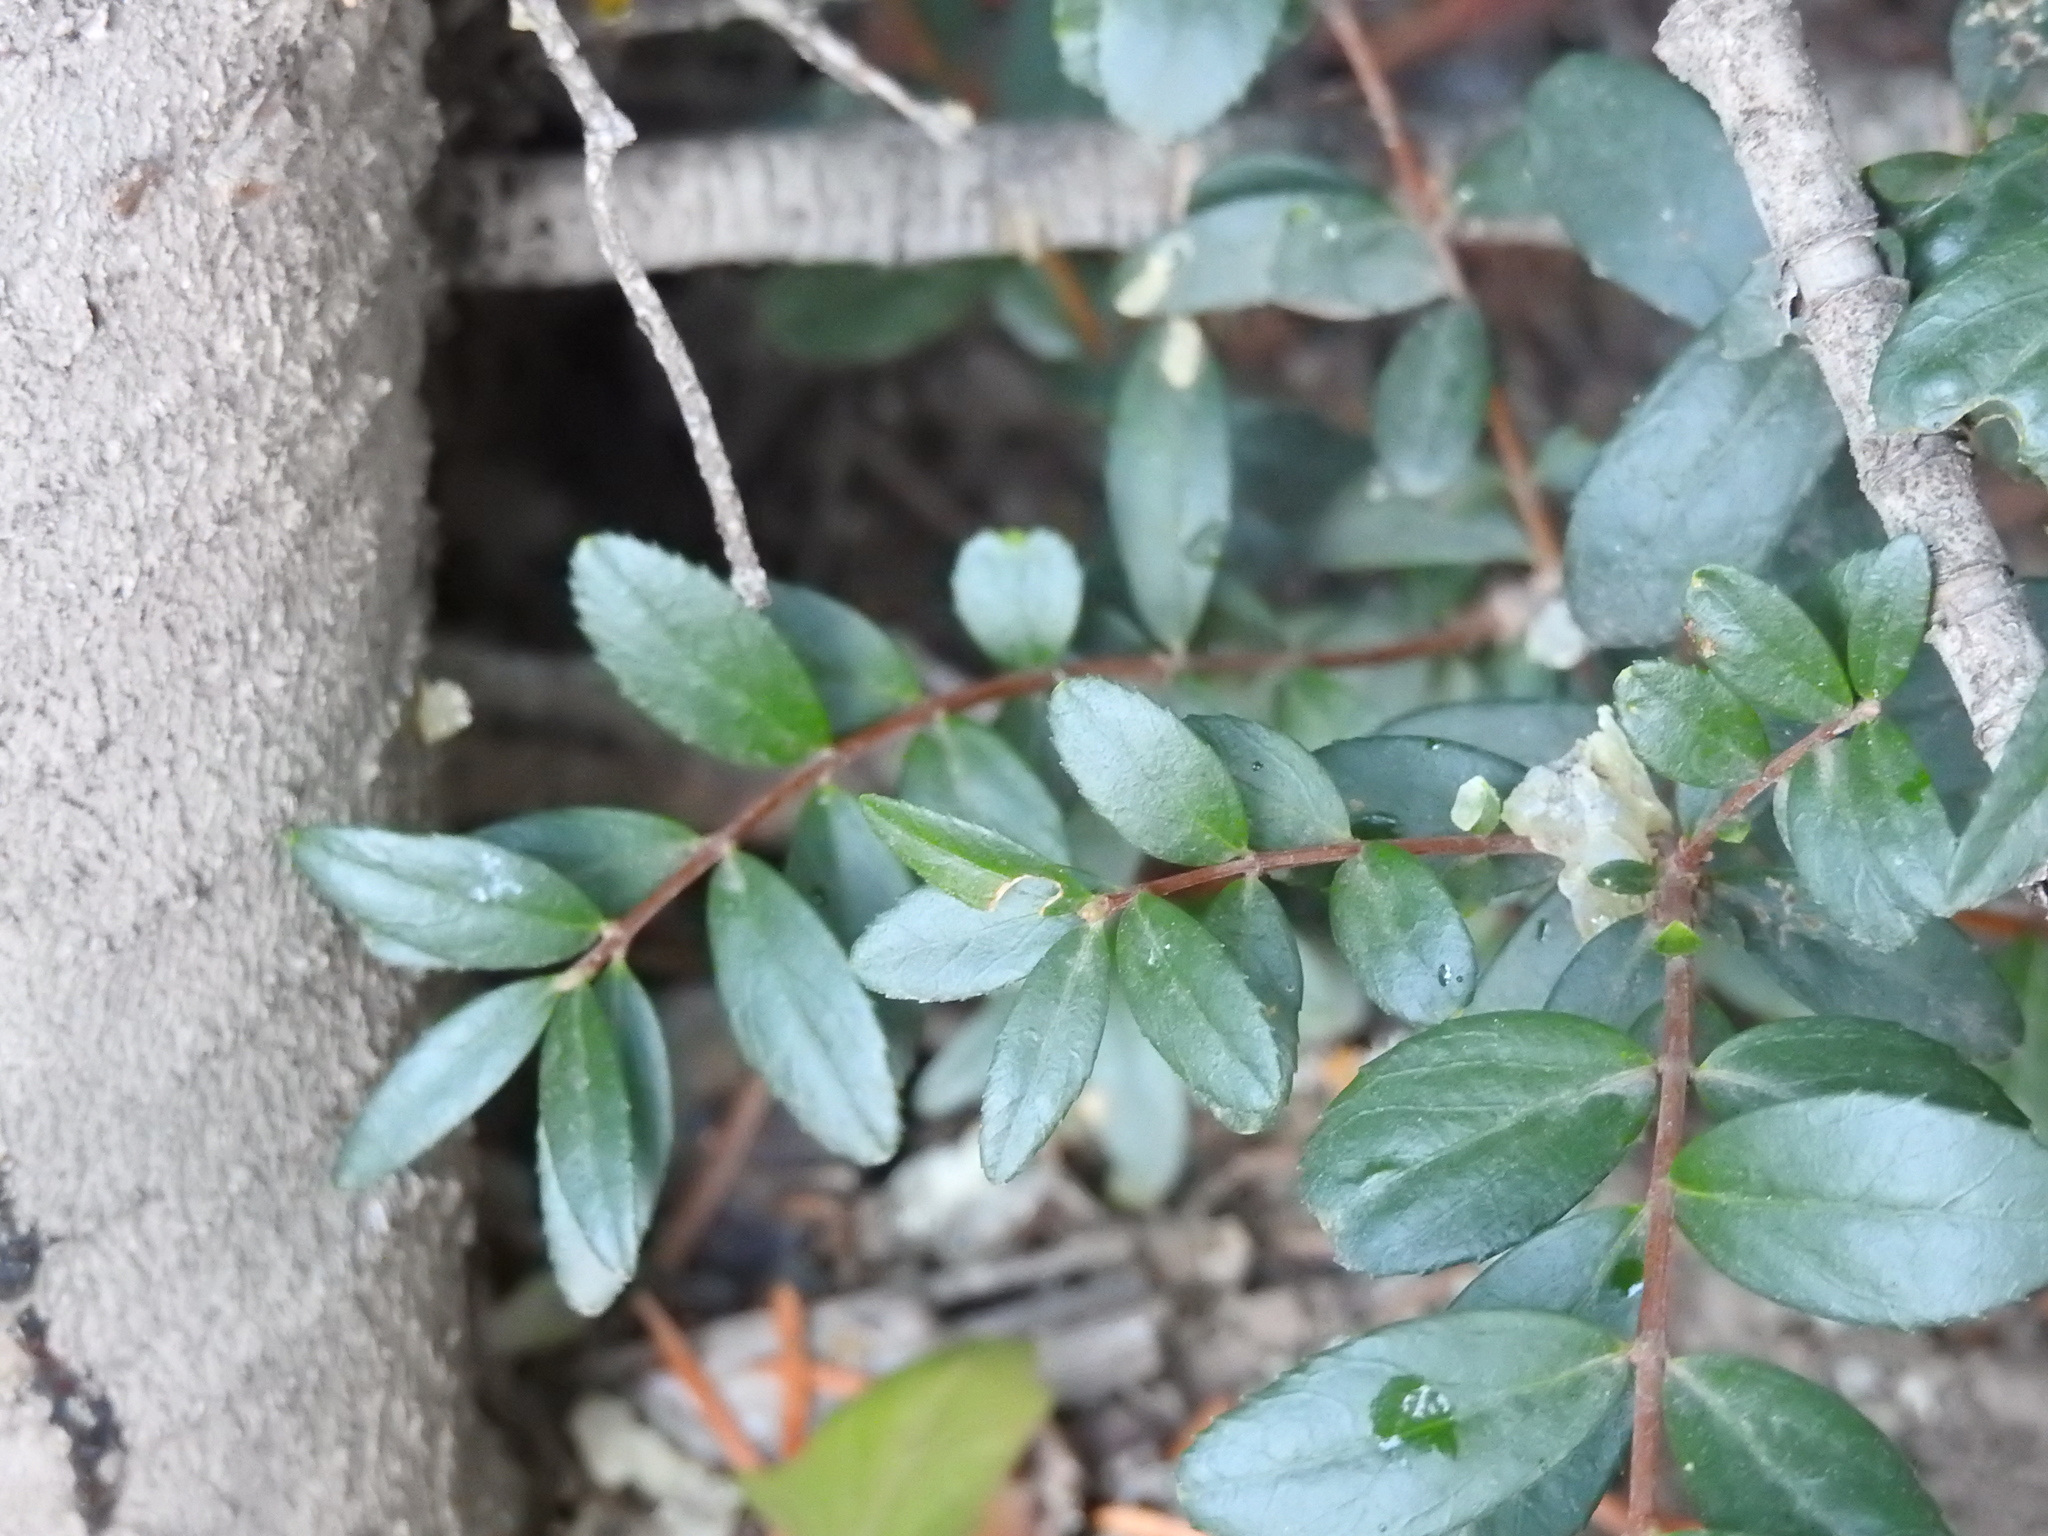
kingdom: Plantae
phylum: Tracheophyta
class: Magnoliopsida
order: Celastrales
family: Celastraceae
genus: Paxistima
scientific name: Paxistima myrsinites
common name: Mountain-lover
